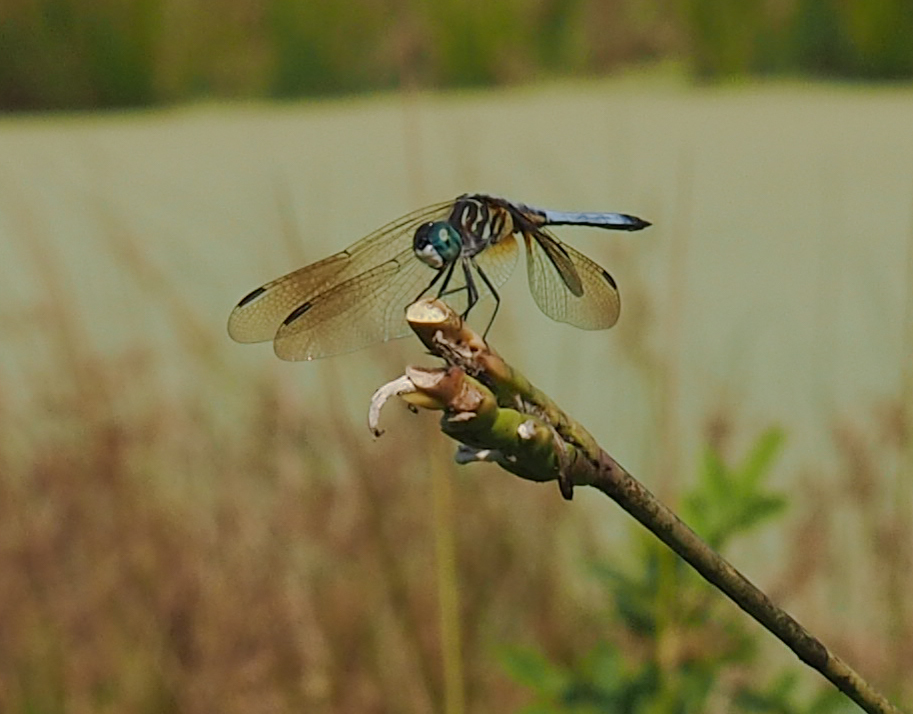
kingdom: Animalia
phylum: Arthropoda
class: Insecta
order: Odonata
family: Libellulidae
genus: Pachydiplax
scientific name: Pachydiplax longipennis
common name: Blue dasher
